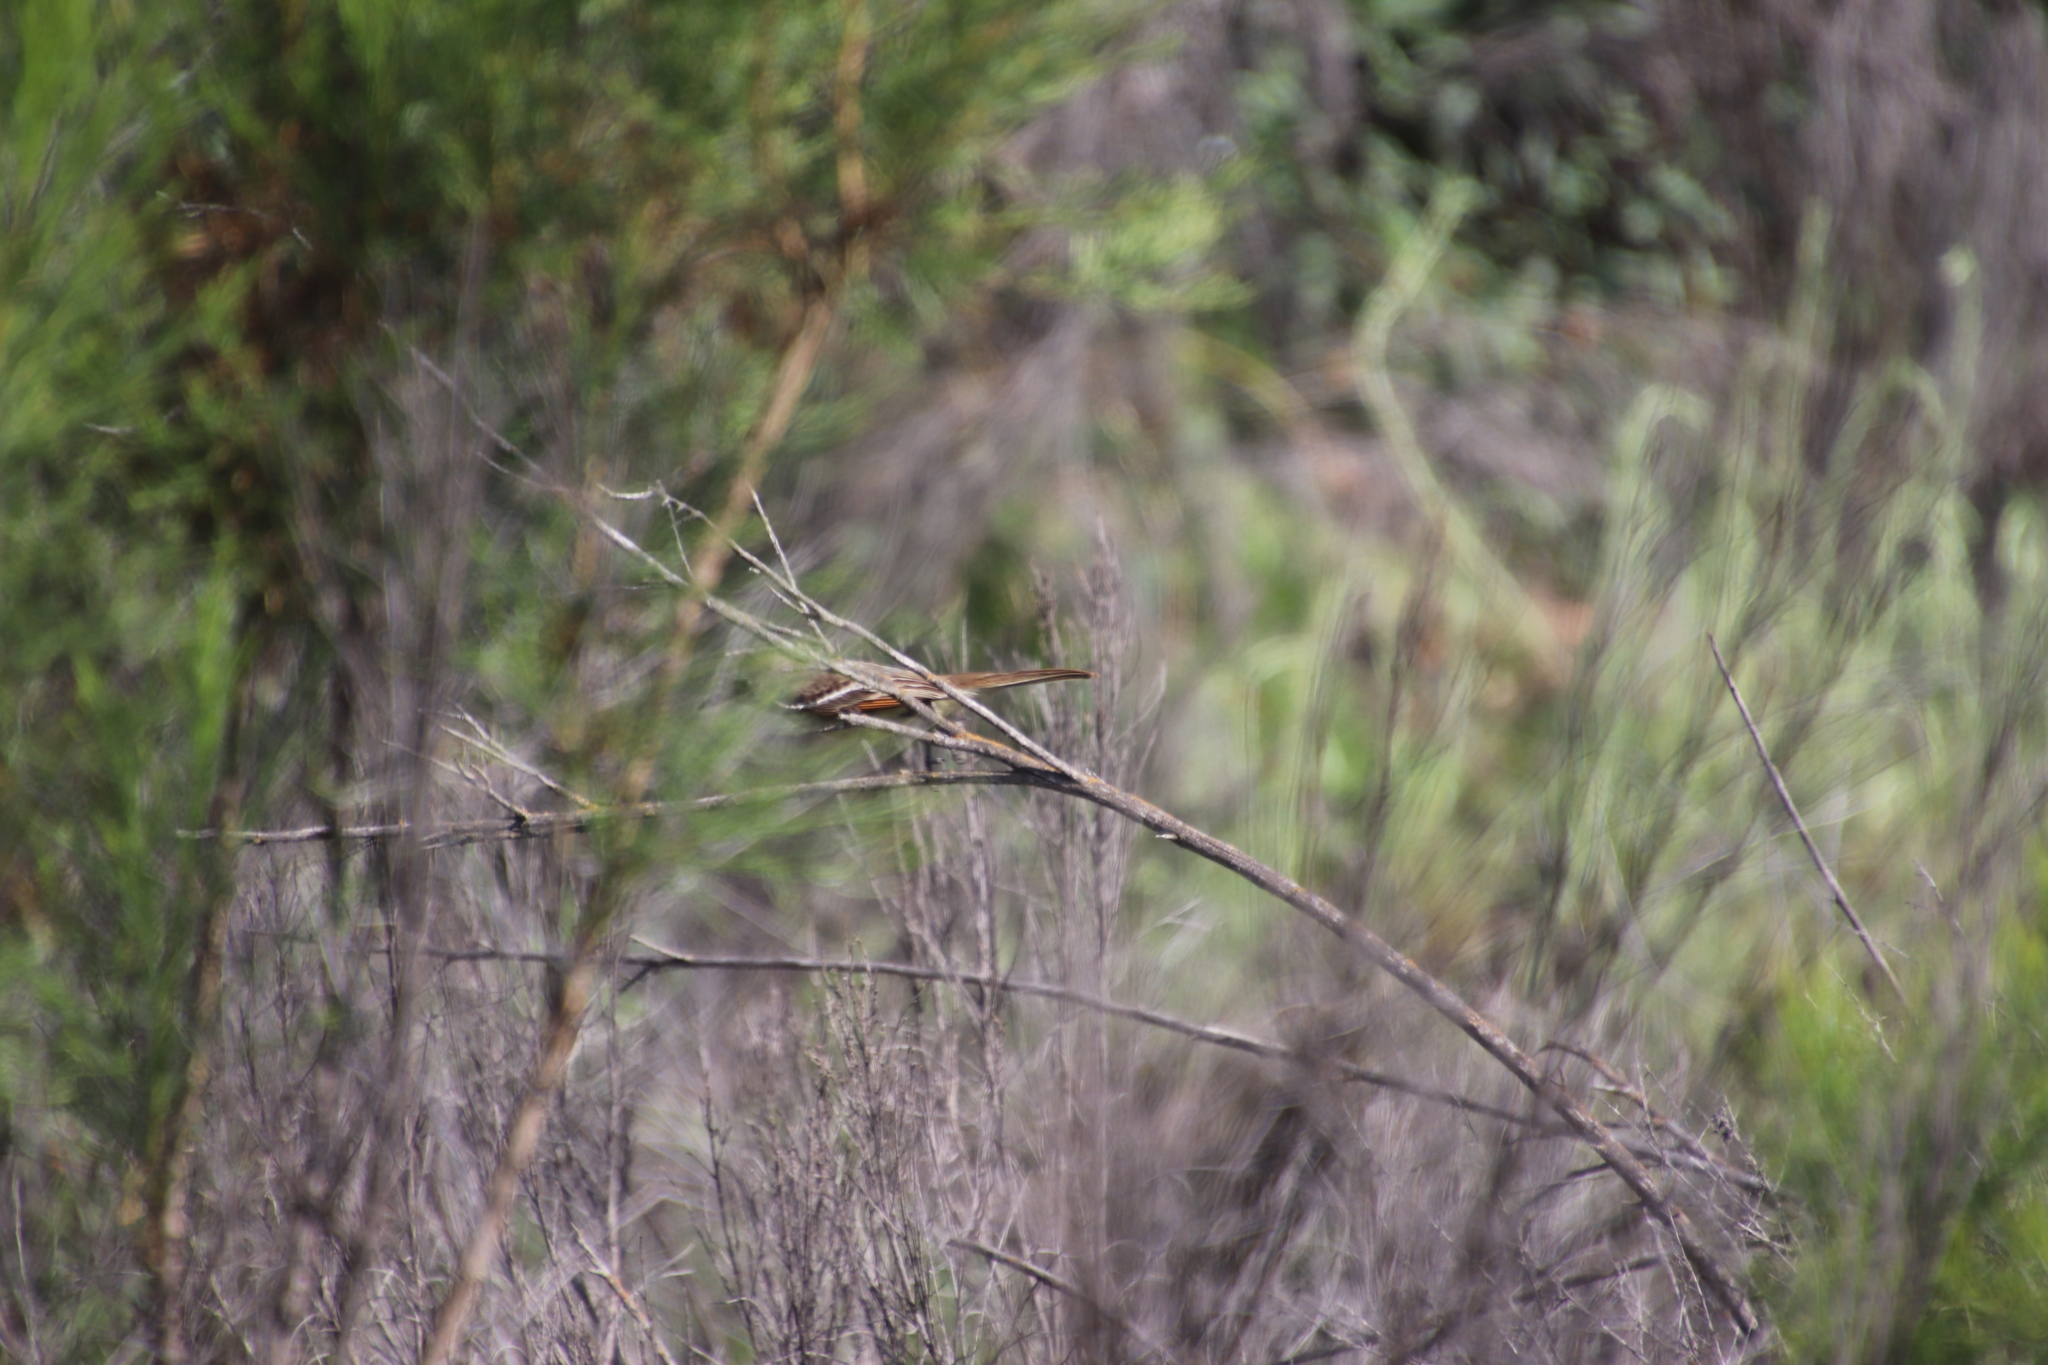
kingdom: Animalia
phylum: Chordata
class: Aves
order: Passeriformes
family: Tyrannidae
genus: Myiarchus
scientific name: Myiarchus cinerascens
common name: Ash-throated flycatcher
